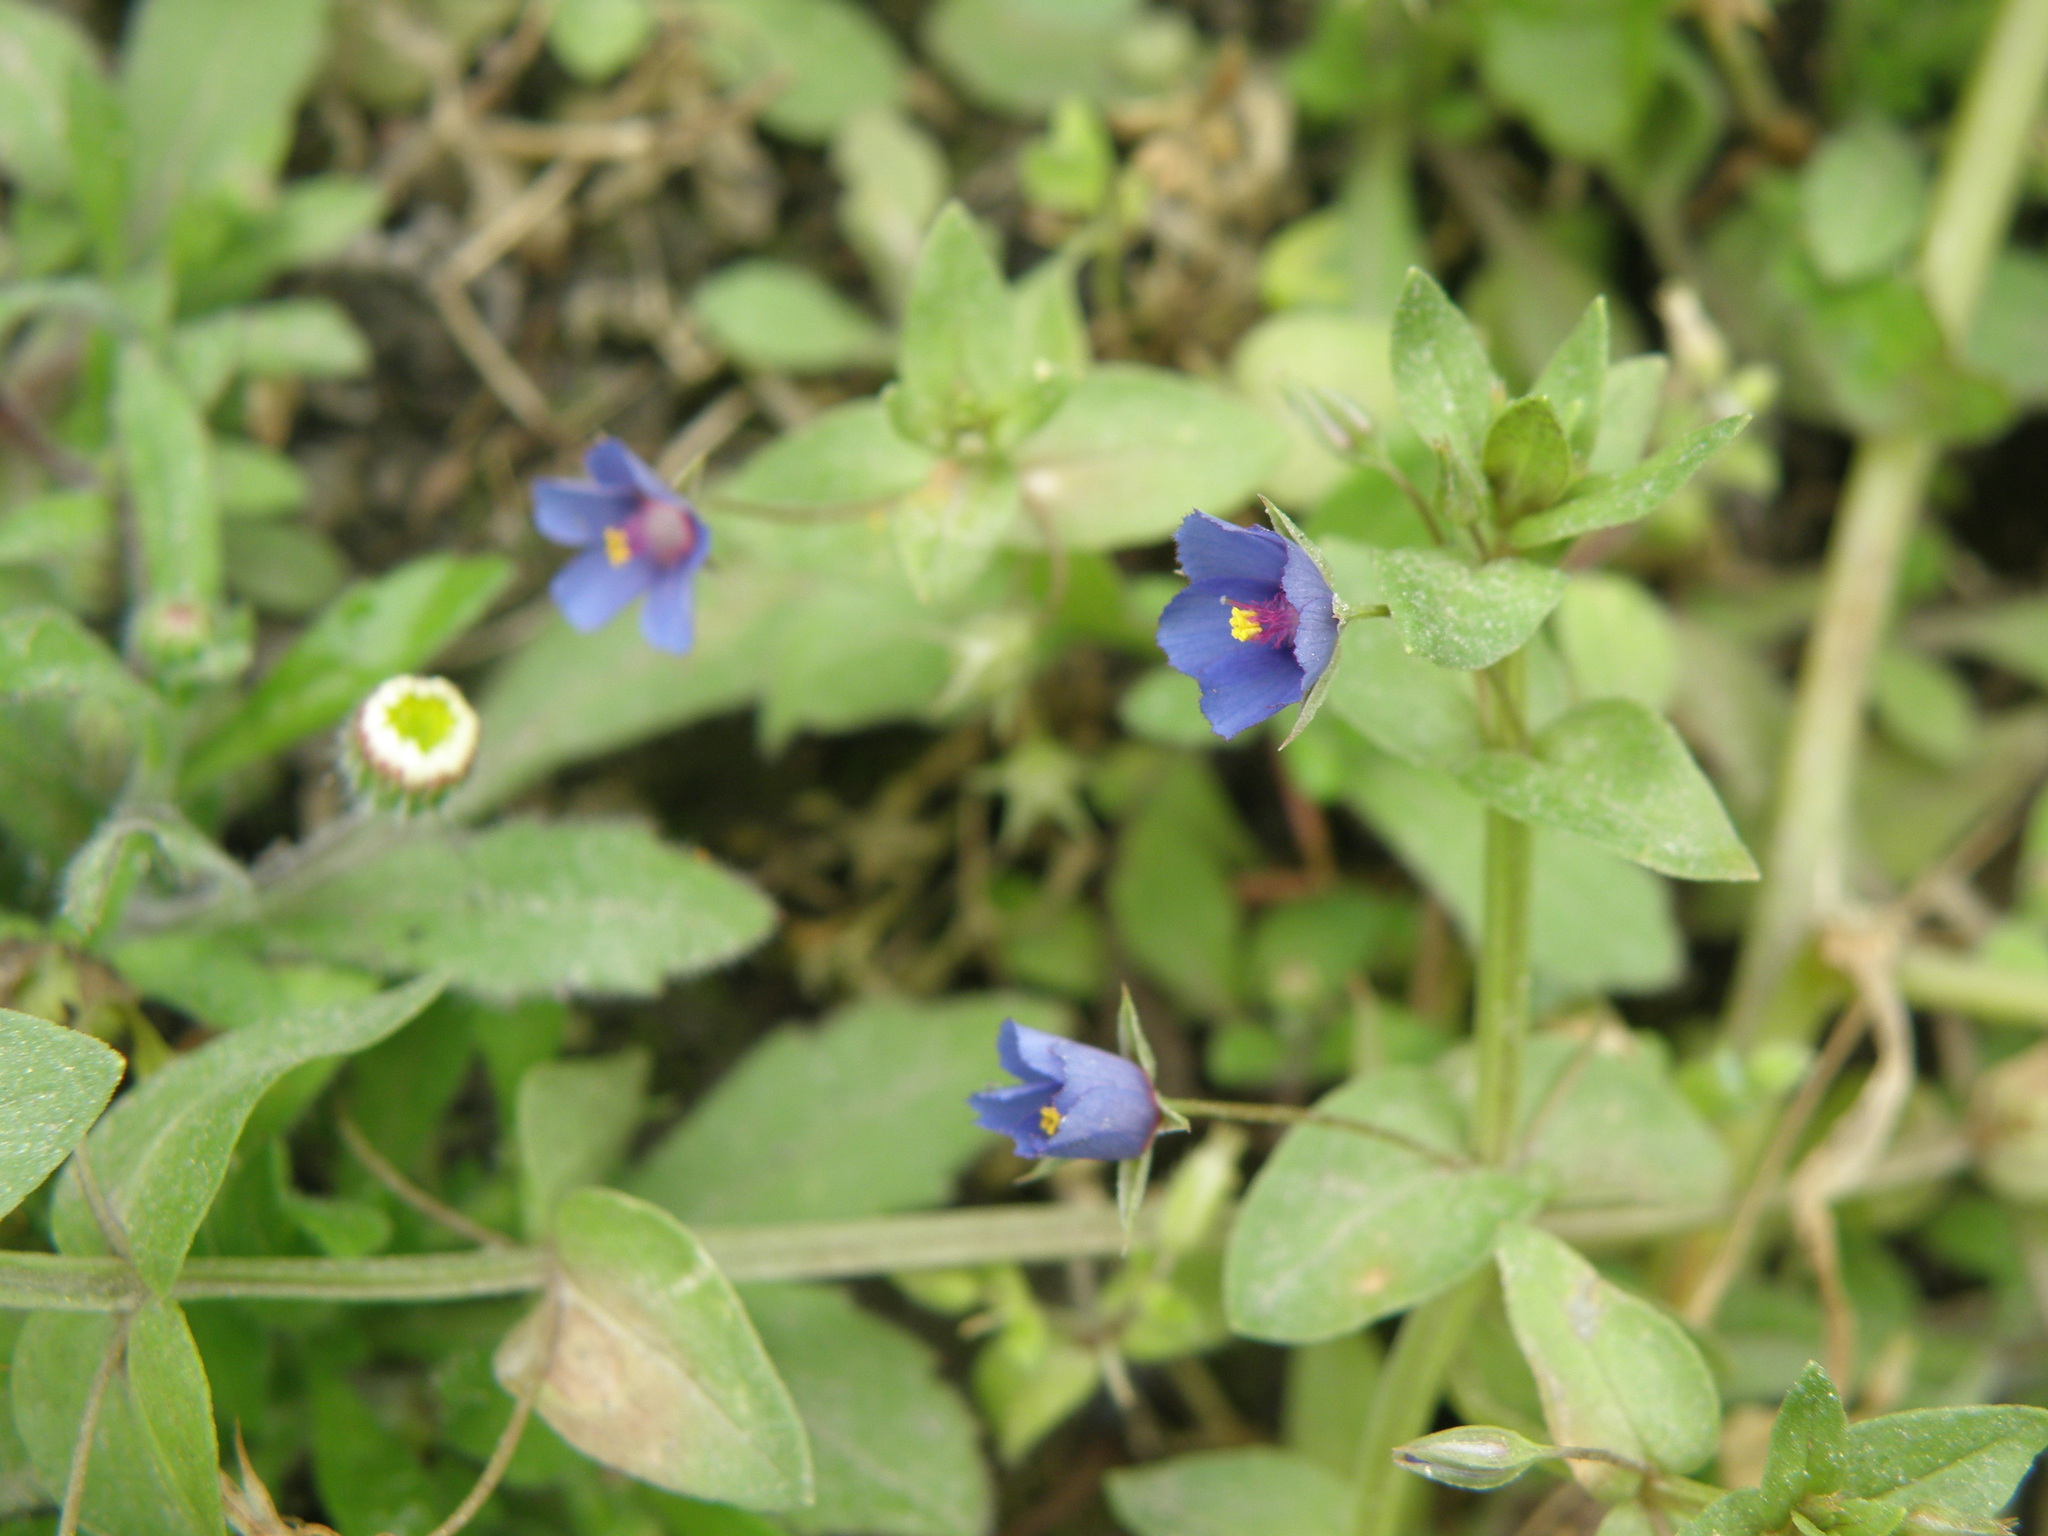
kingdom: Plantae
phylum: Tracheophyta
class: Magnoliopsida
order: Ericales
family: Primulaceae
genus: Lysimachia
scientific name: Lysimachia arvensis
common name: Scarlet pimpernel
